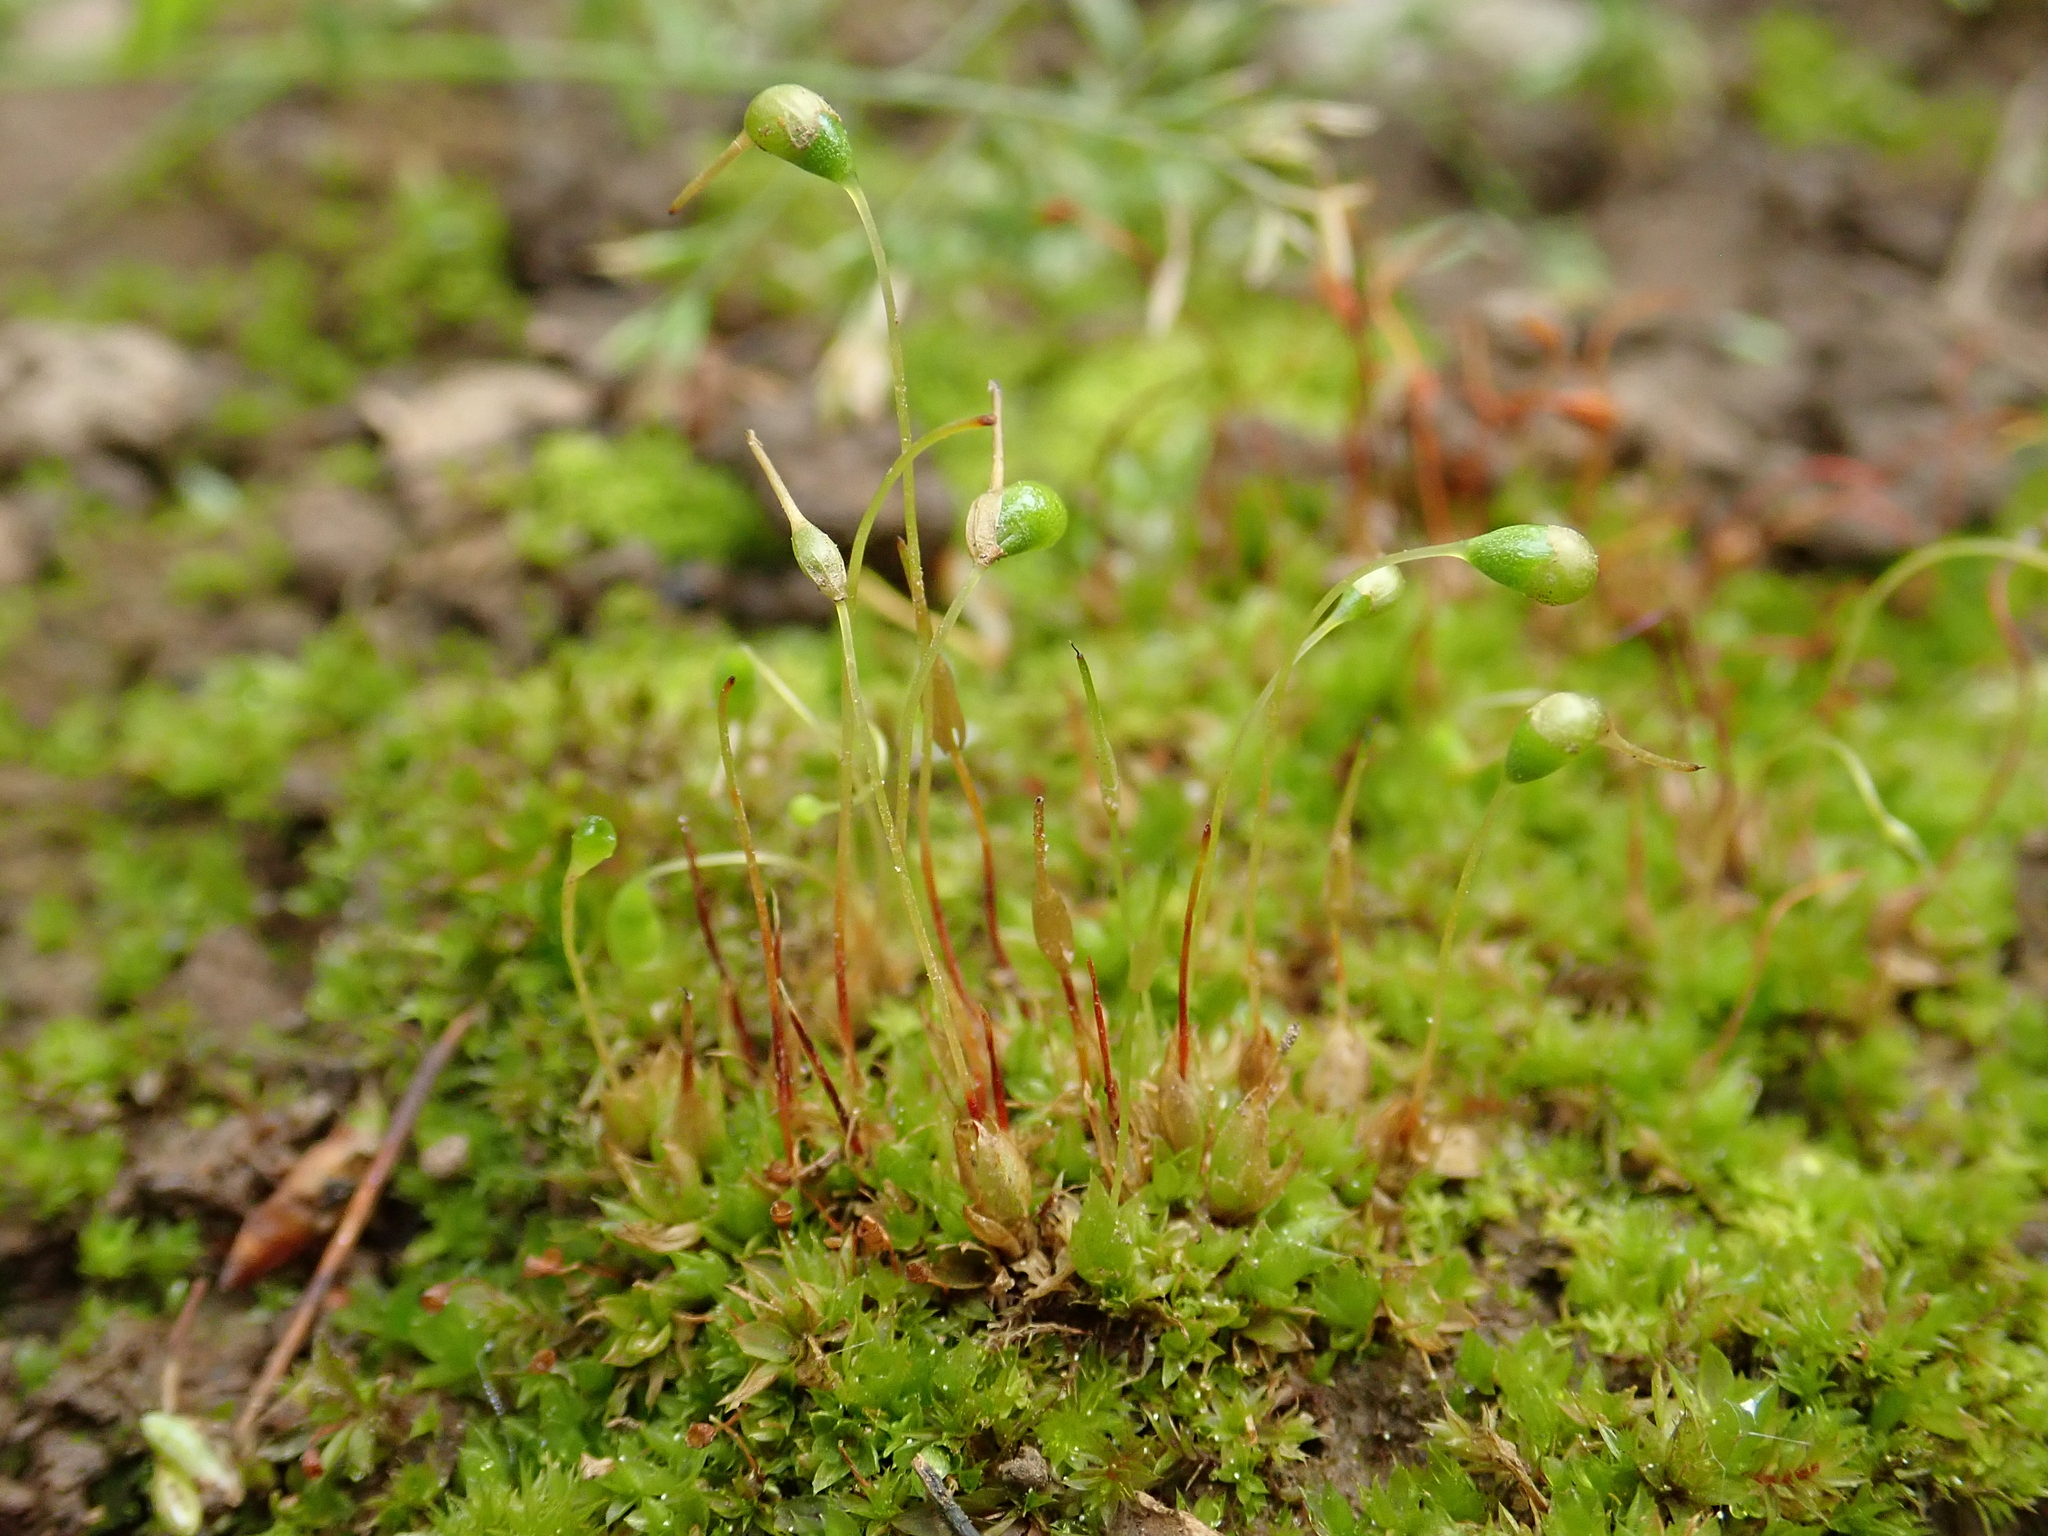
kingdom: Plantae
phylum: Bryophyta
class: Bryopsida
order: Funariales
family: Funariaceae
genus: Funaria
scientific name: Funaria hygrometrica
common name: Common cord moss
